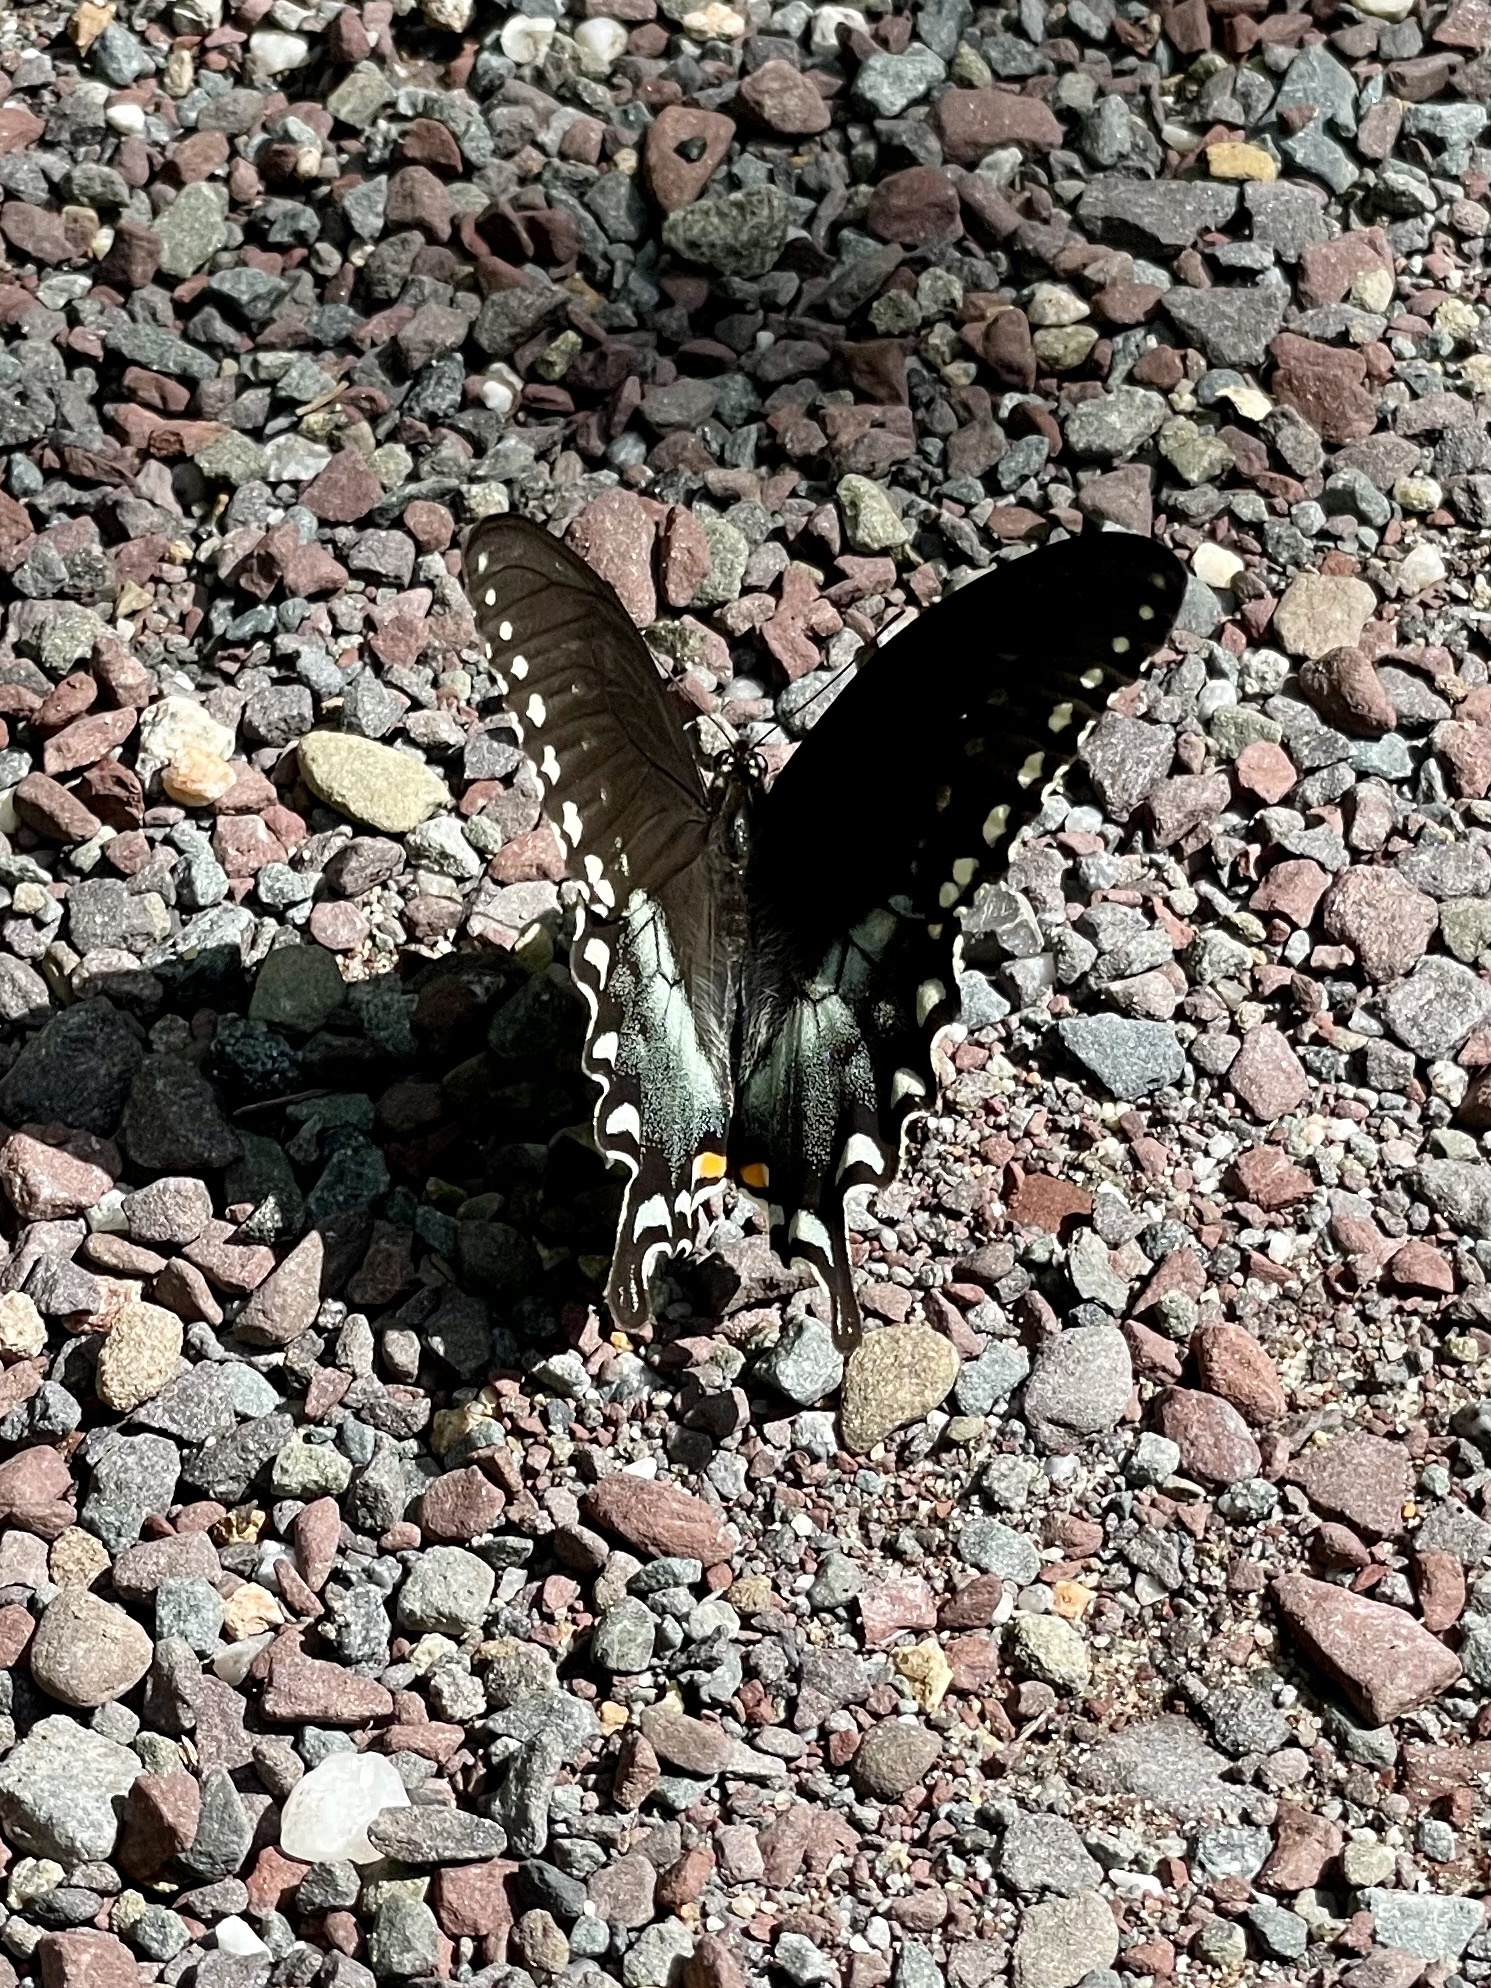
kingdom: Animalia
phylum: Arthropoda
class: Insecta
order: Lepidoptera
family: Papilionidae
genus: Papilio
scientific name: Papilio troilus
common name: Spicebush swallowtail
